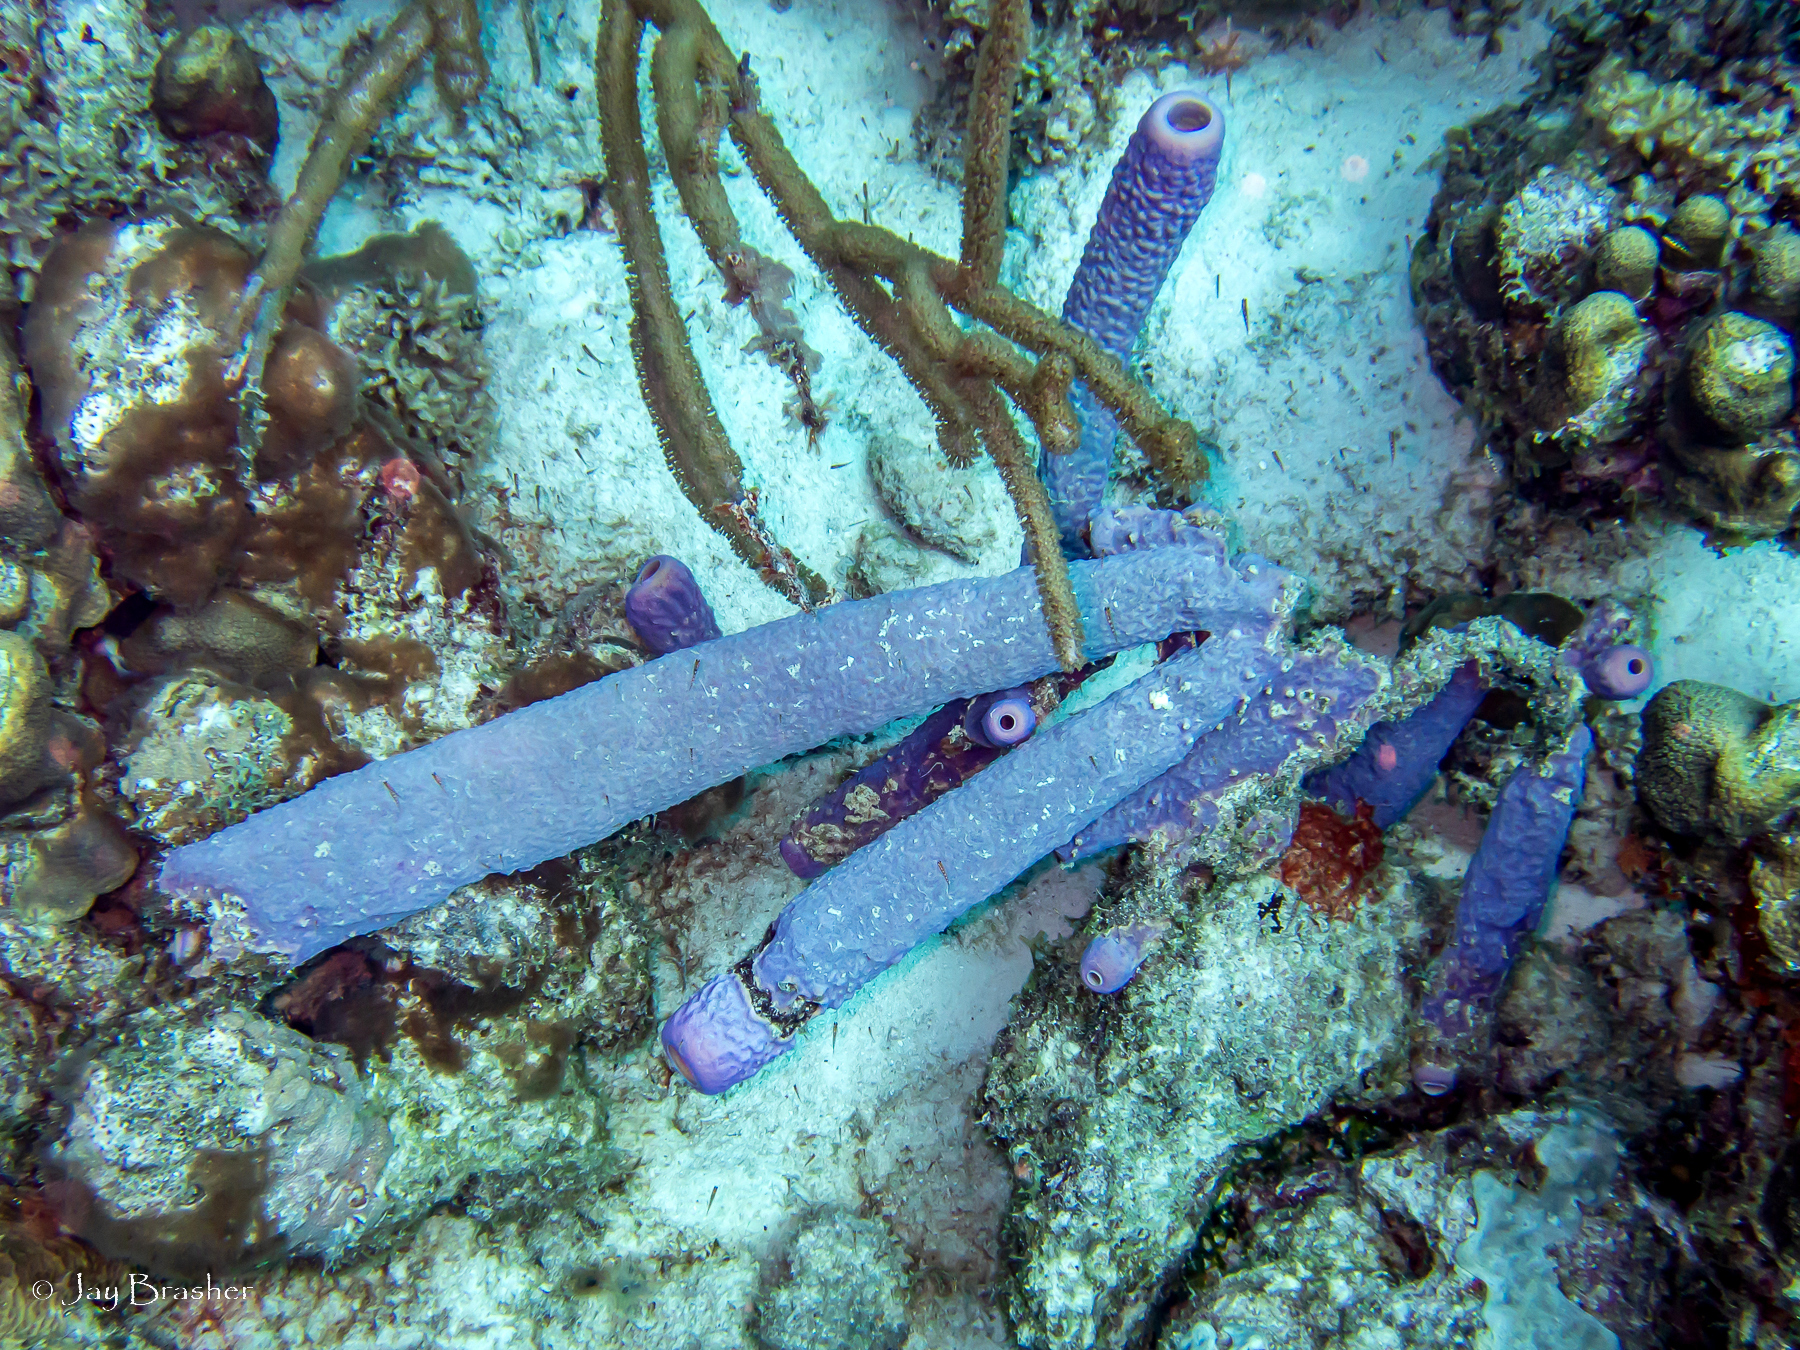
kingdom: Animalia
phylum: Porifera
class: Demospongiae
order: Verongiida
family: Aplysinidae
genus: Aplysina
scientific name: Aplysina archeri
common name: Stove-pipe sponge
